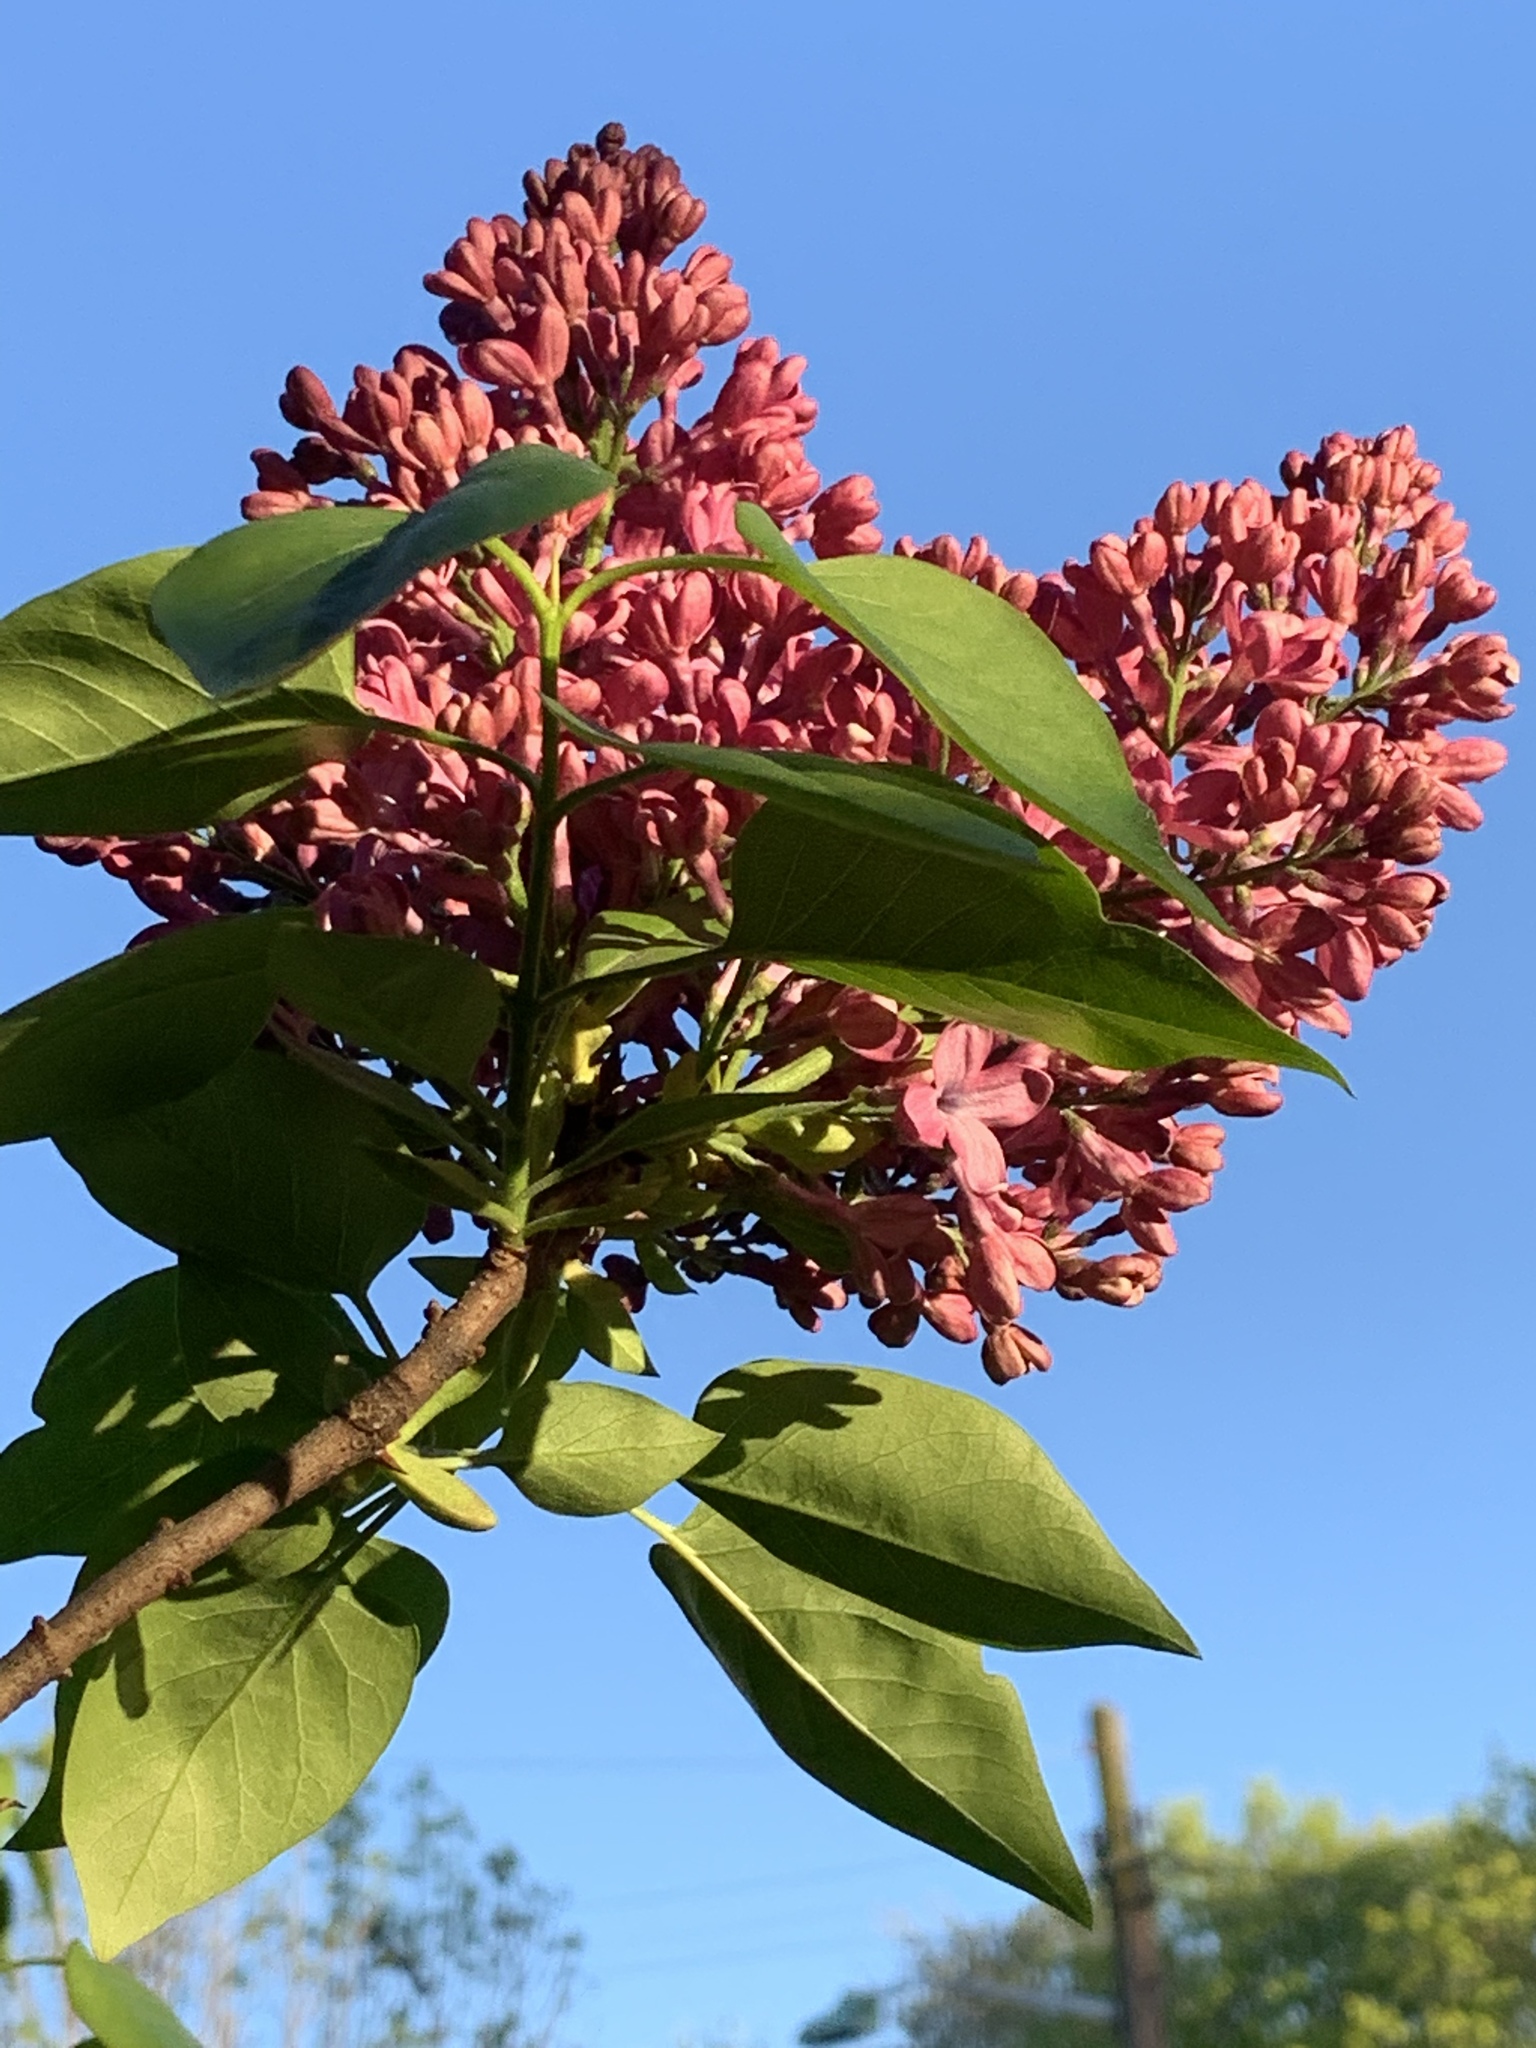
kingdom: Plantae
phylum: Tracheophyta
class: Magnoliopsida
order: Lamiales
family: Oleaceae
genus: Syringa
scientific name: Syringa vulgaris
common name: Common lilac
